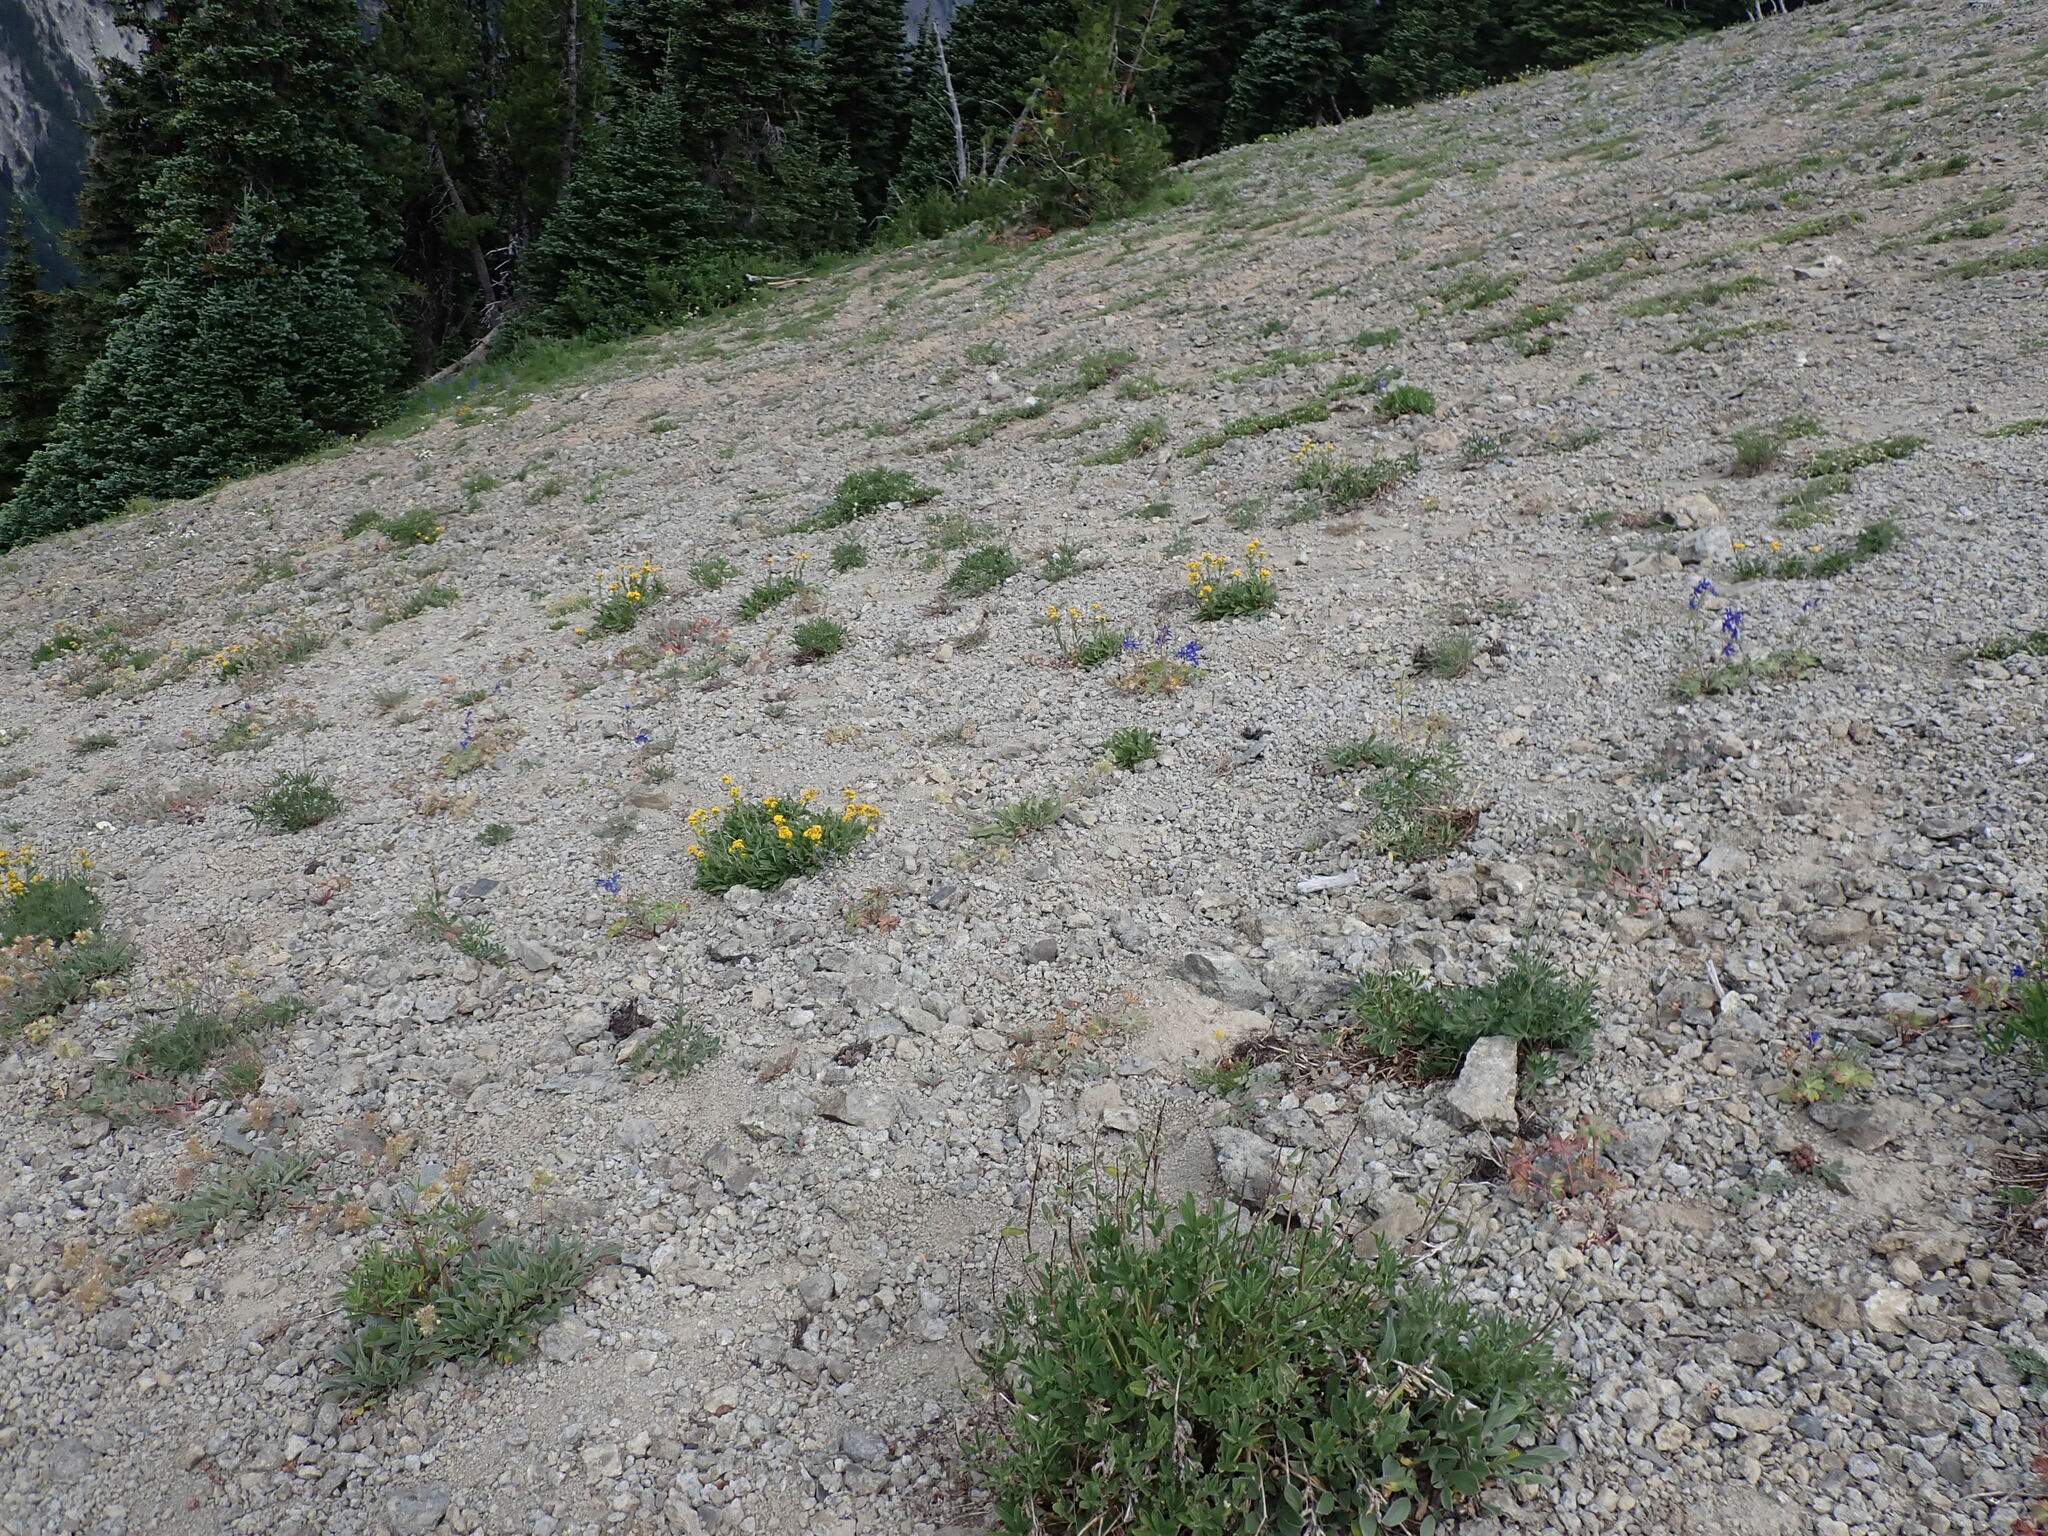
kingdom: Plantae
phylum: Tracheophyta
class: Magnoliopsida
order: Boraginales
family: Hydrophyllaceae
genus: Phacelia
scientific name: Phacelia hastata
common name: Silver-leaved phacelia
